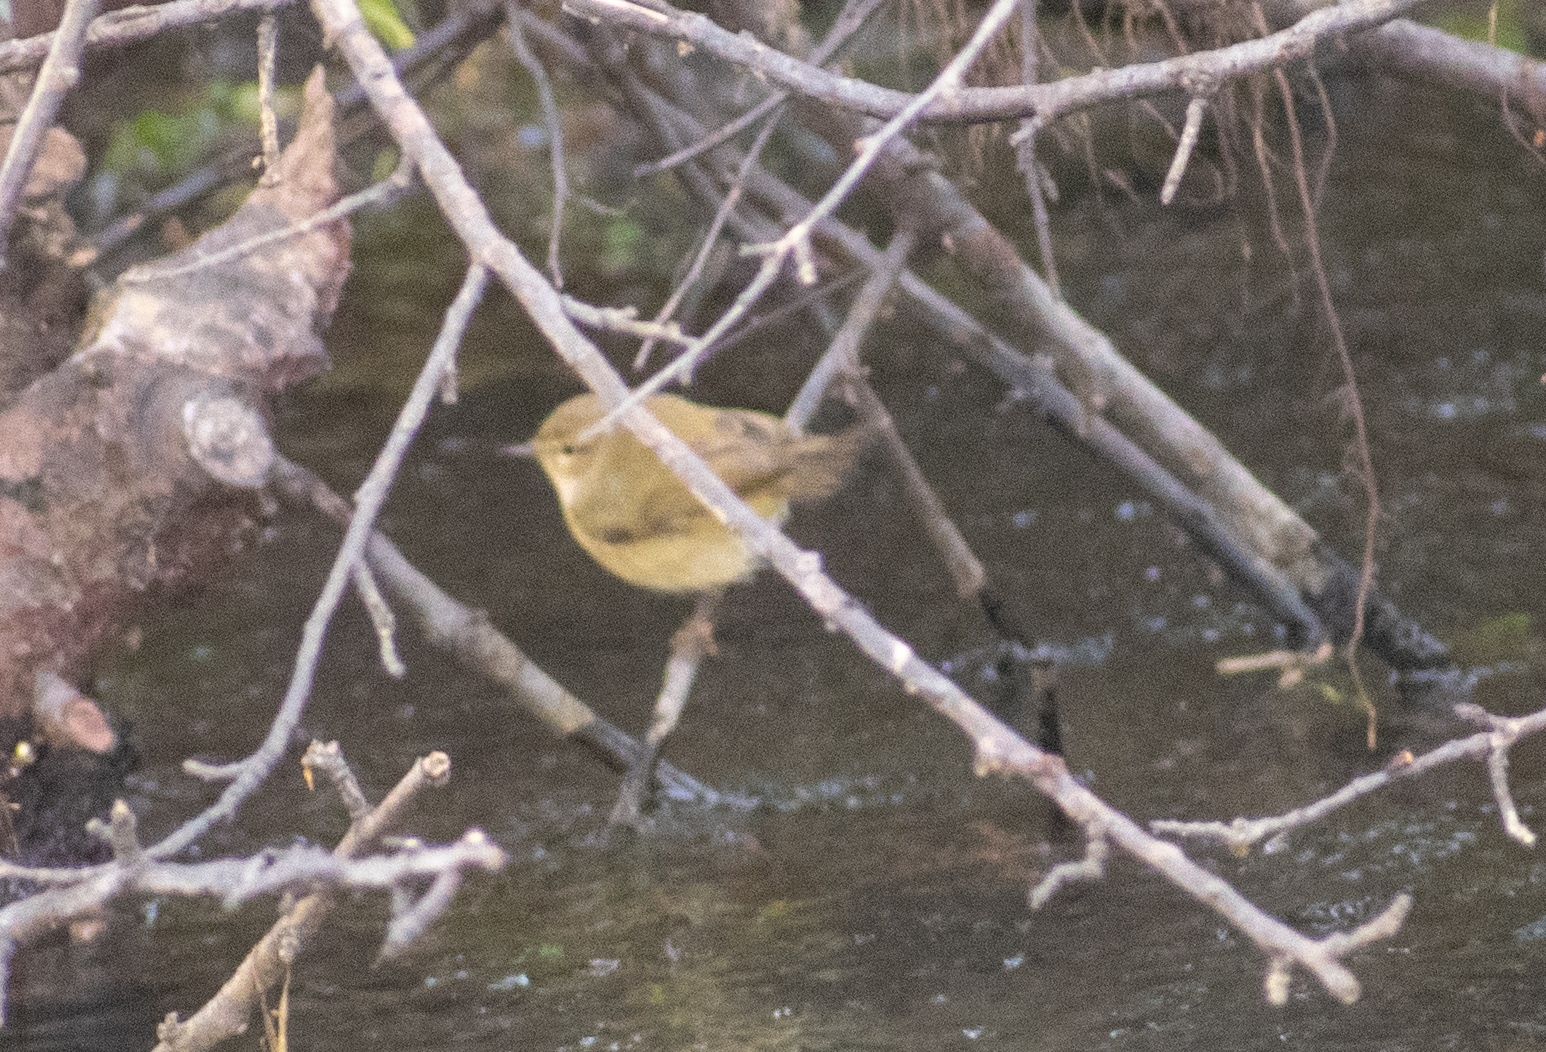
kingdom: Animalia
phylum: Chordata
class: Aves
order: Passeriformes
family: Phylloscopidae
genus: Phylloscopus
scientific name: Phylloscopus collybita
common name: Common chiffchaff
